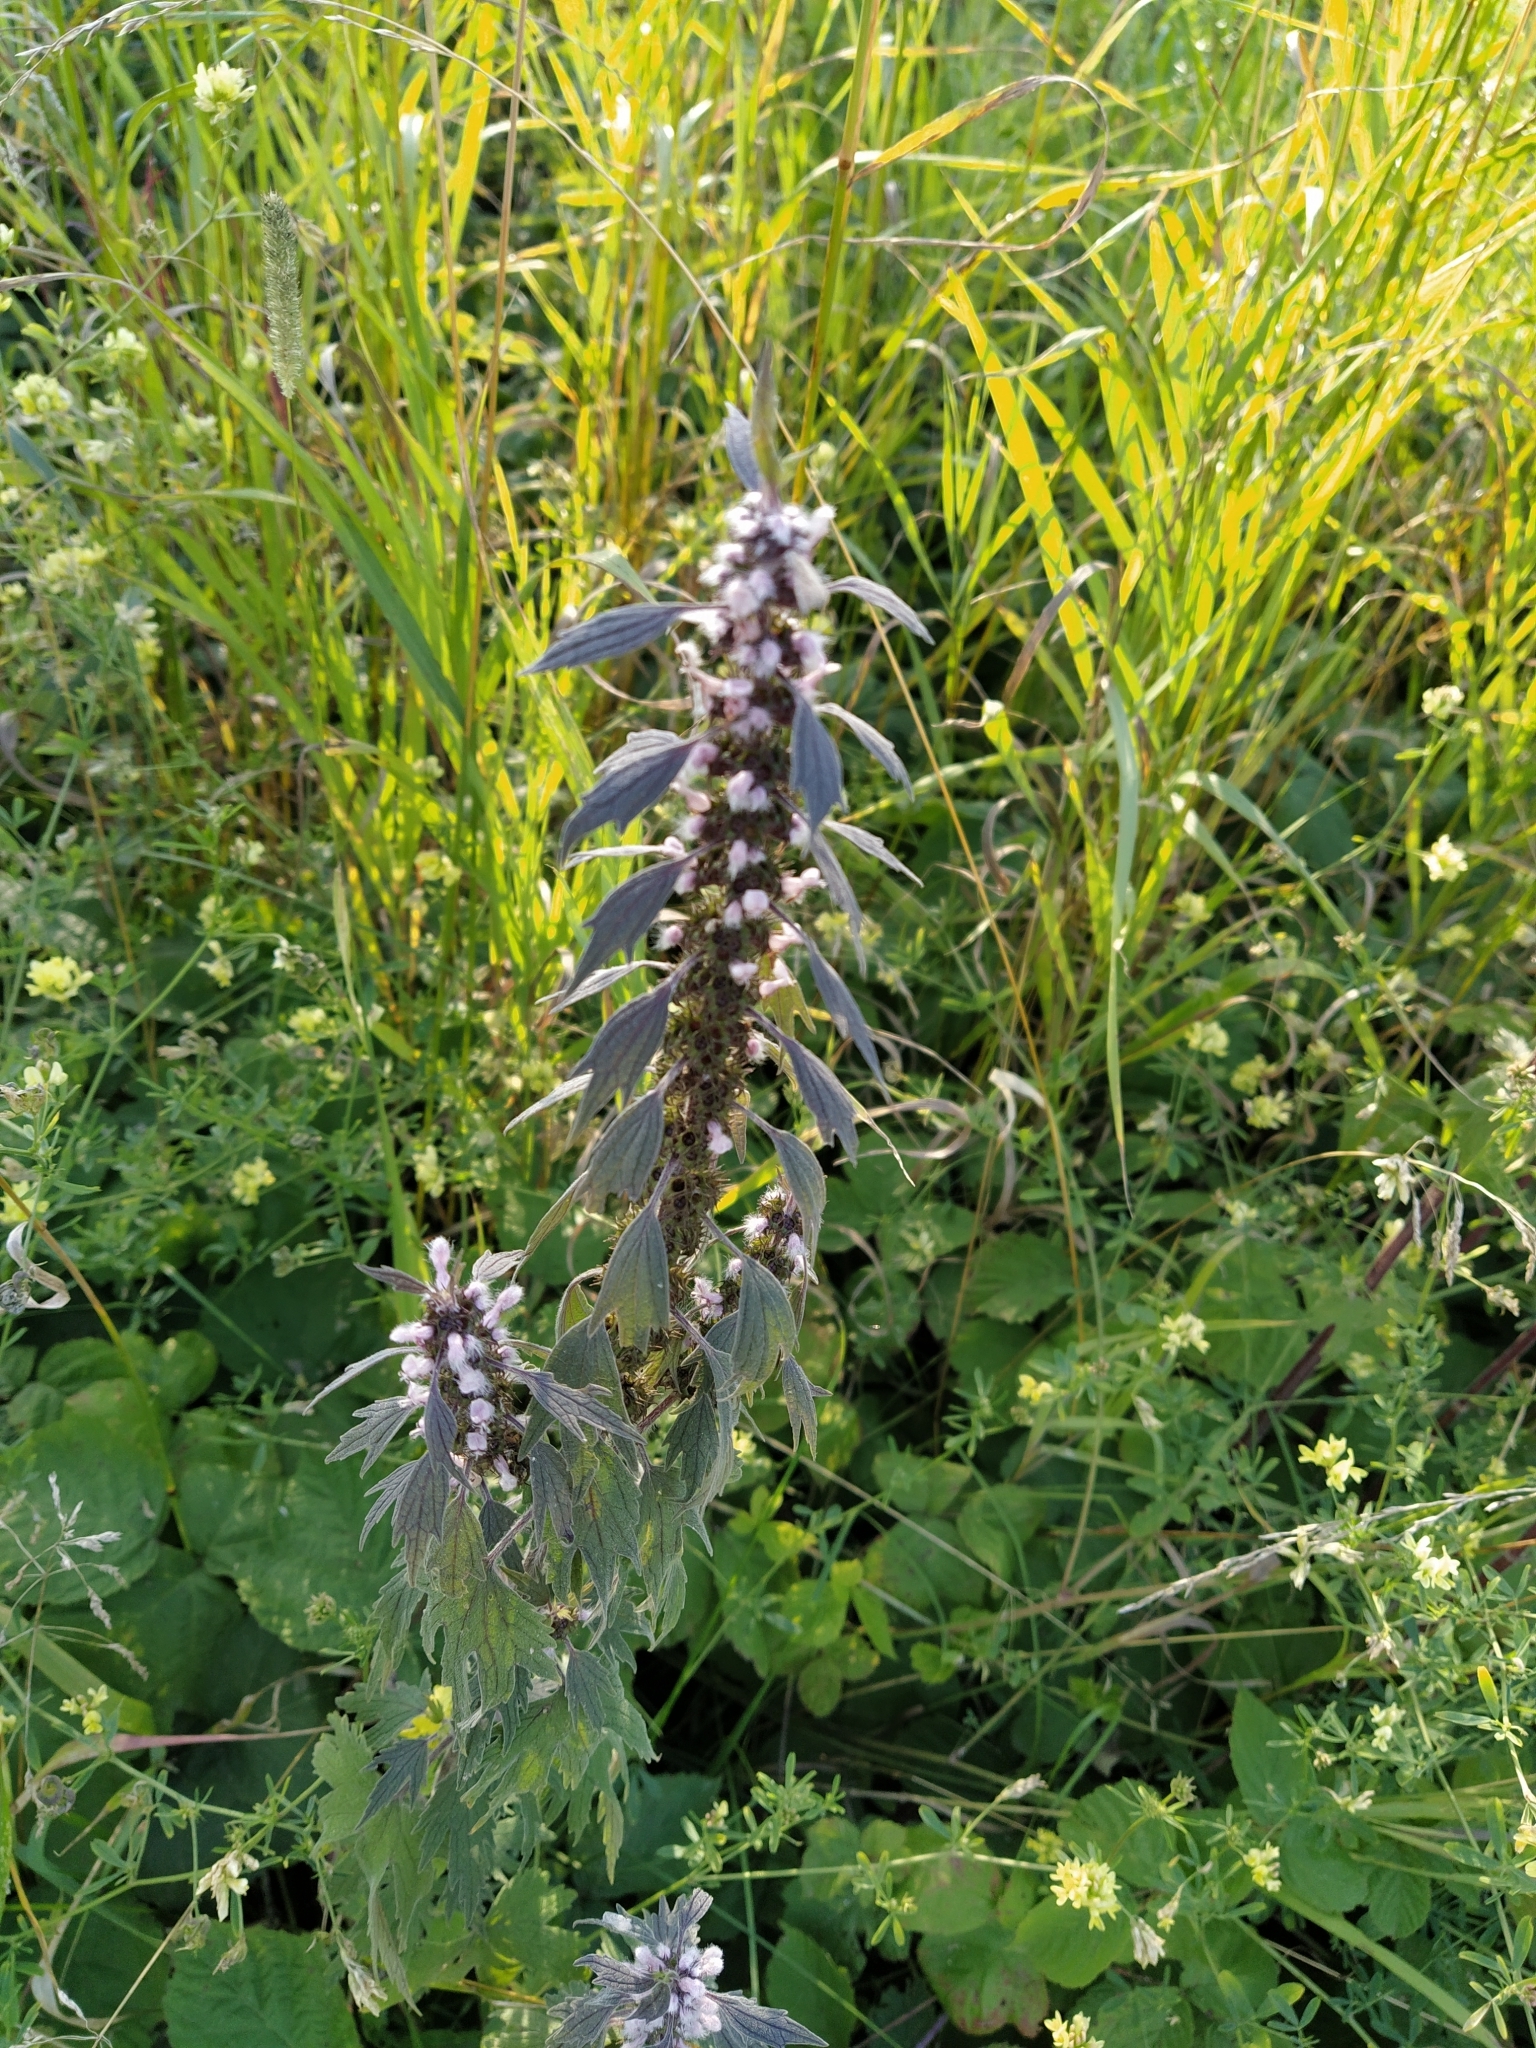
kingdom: Plantae
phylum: Tracheophyta
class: Magnoliopsida
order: Lamiales
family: Lamiaceae
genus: Leonurus
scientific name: Leonurus quinquelobatus
